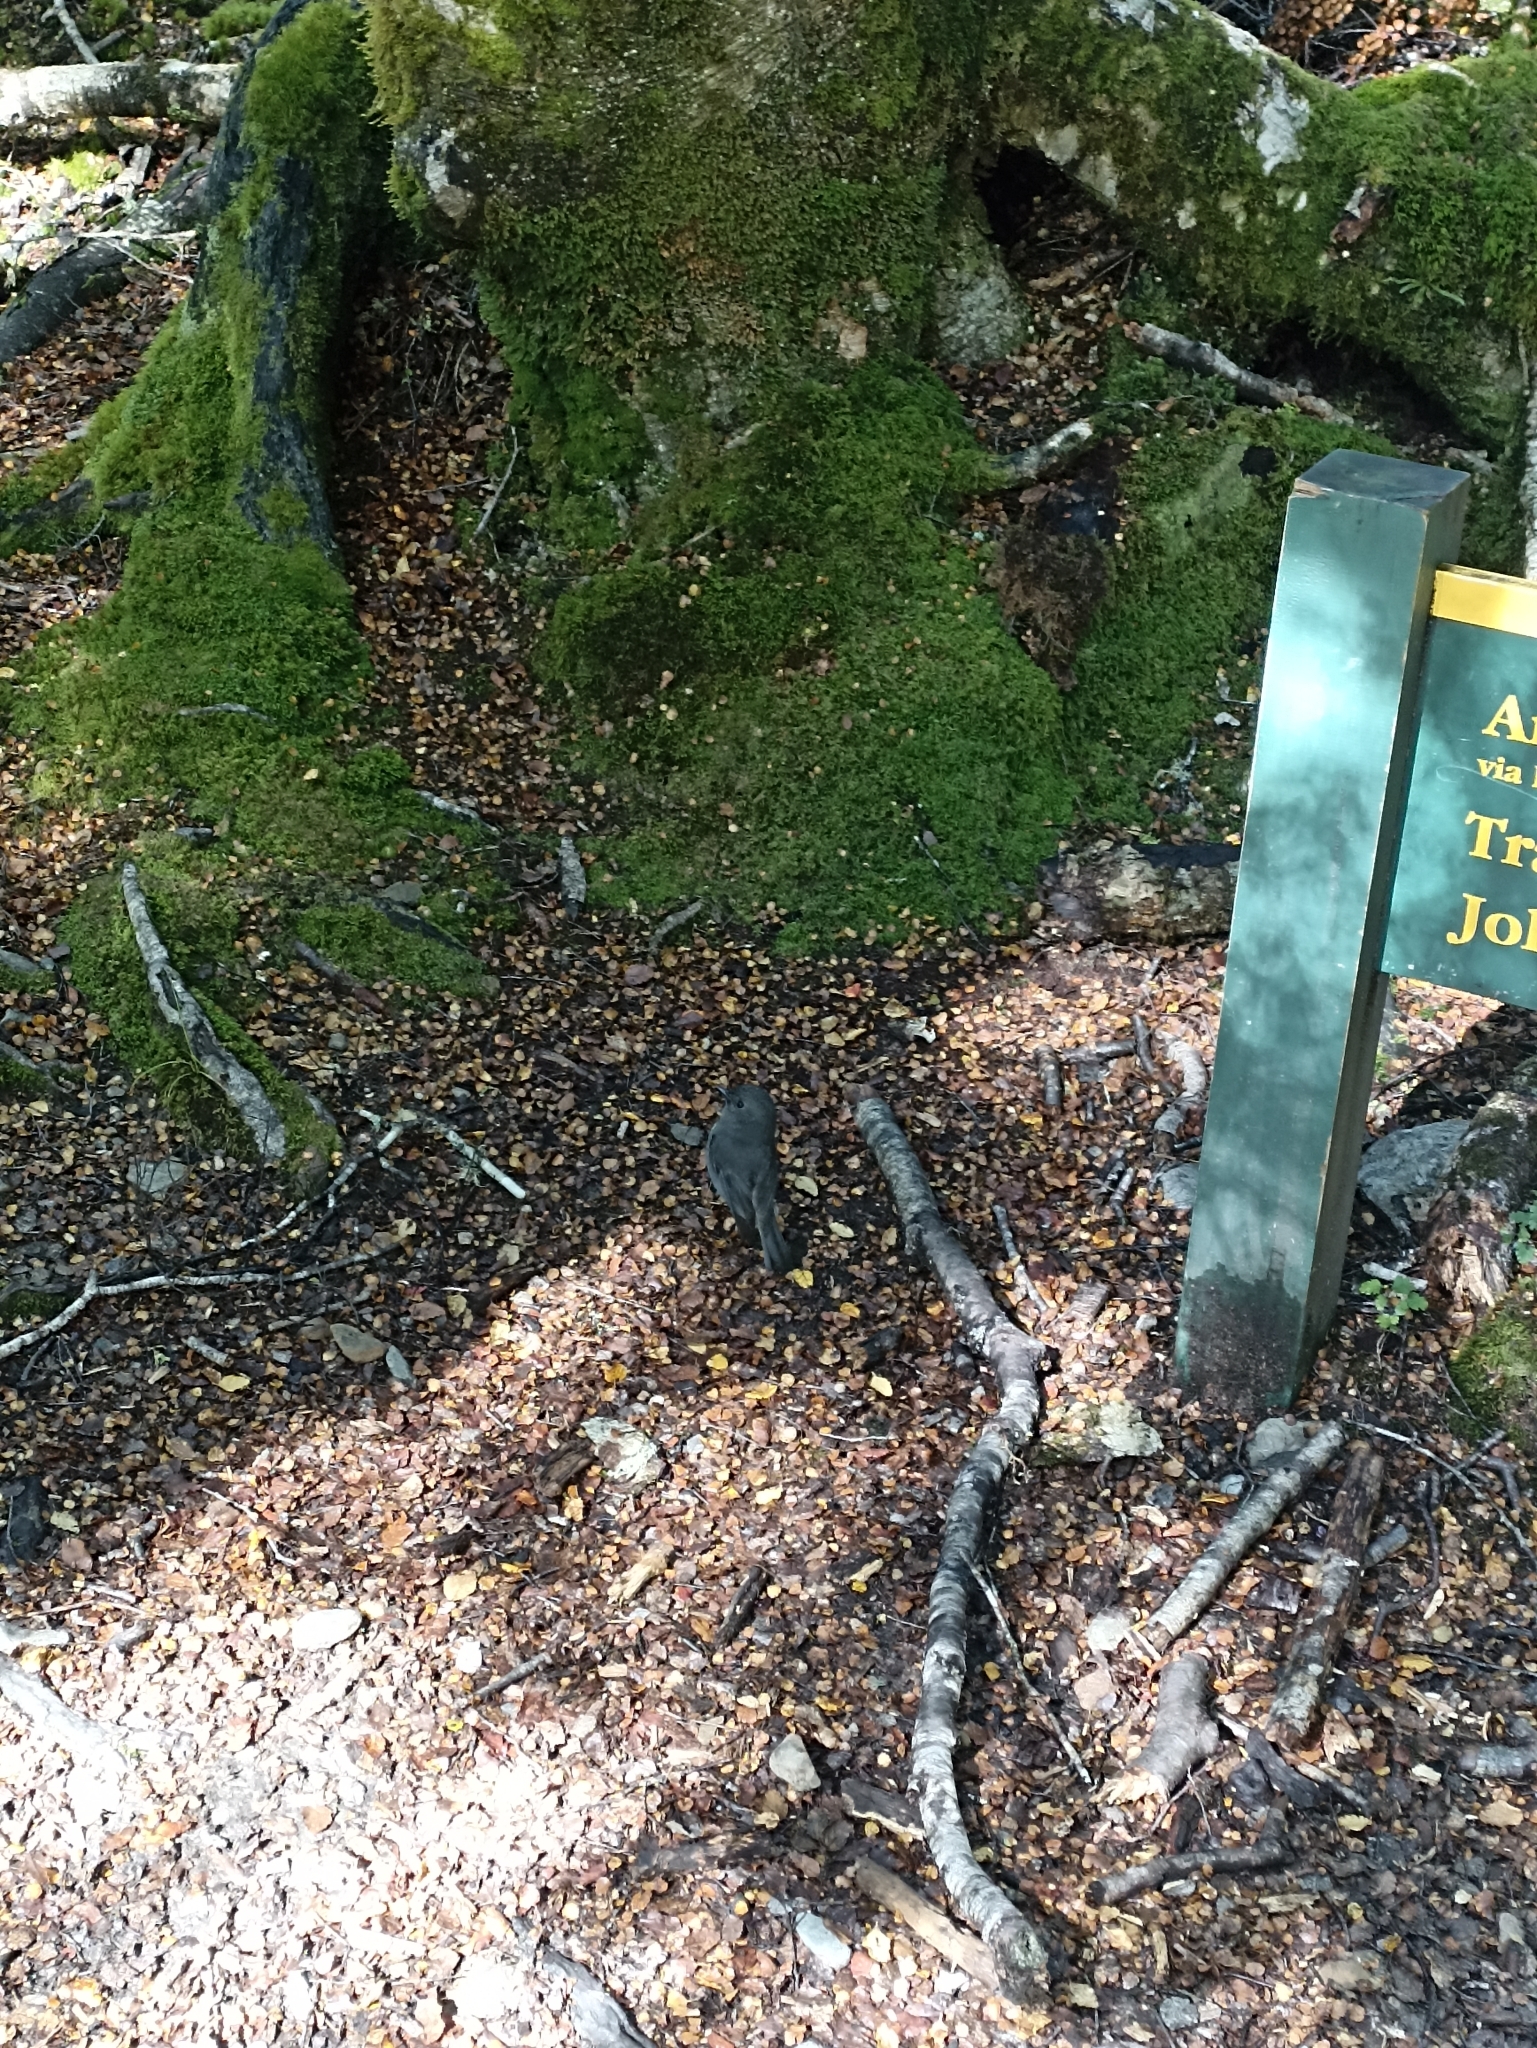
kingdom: Animalia
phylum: Chordata
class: Aves
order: Passeriformes
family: Petroicidae
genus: Petroica
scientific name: Petroica australis
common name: New zealand robin
